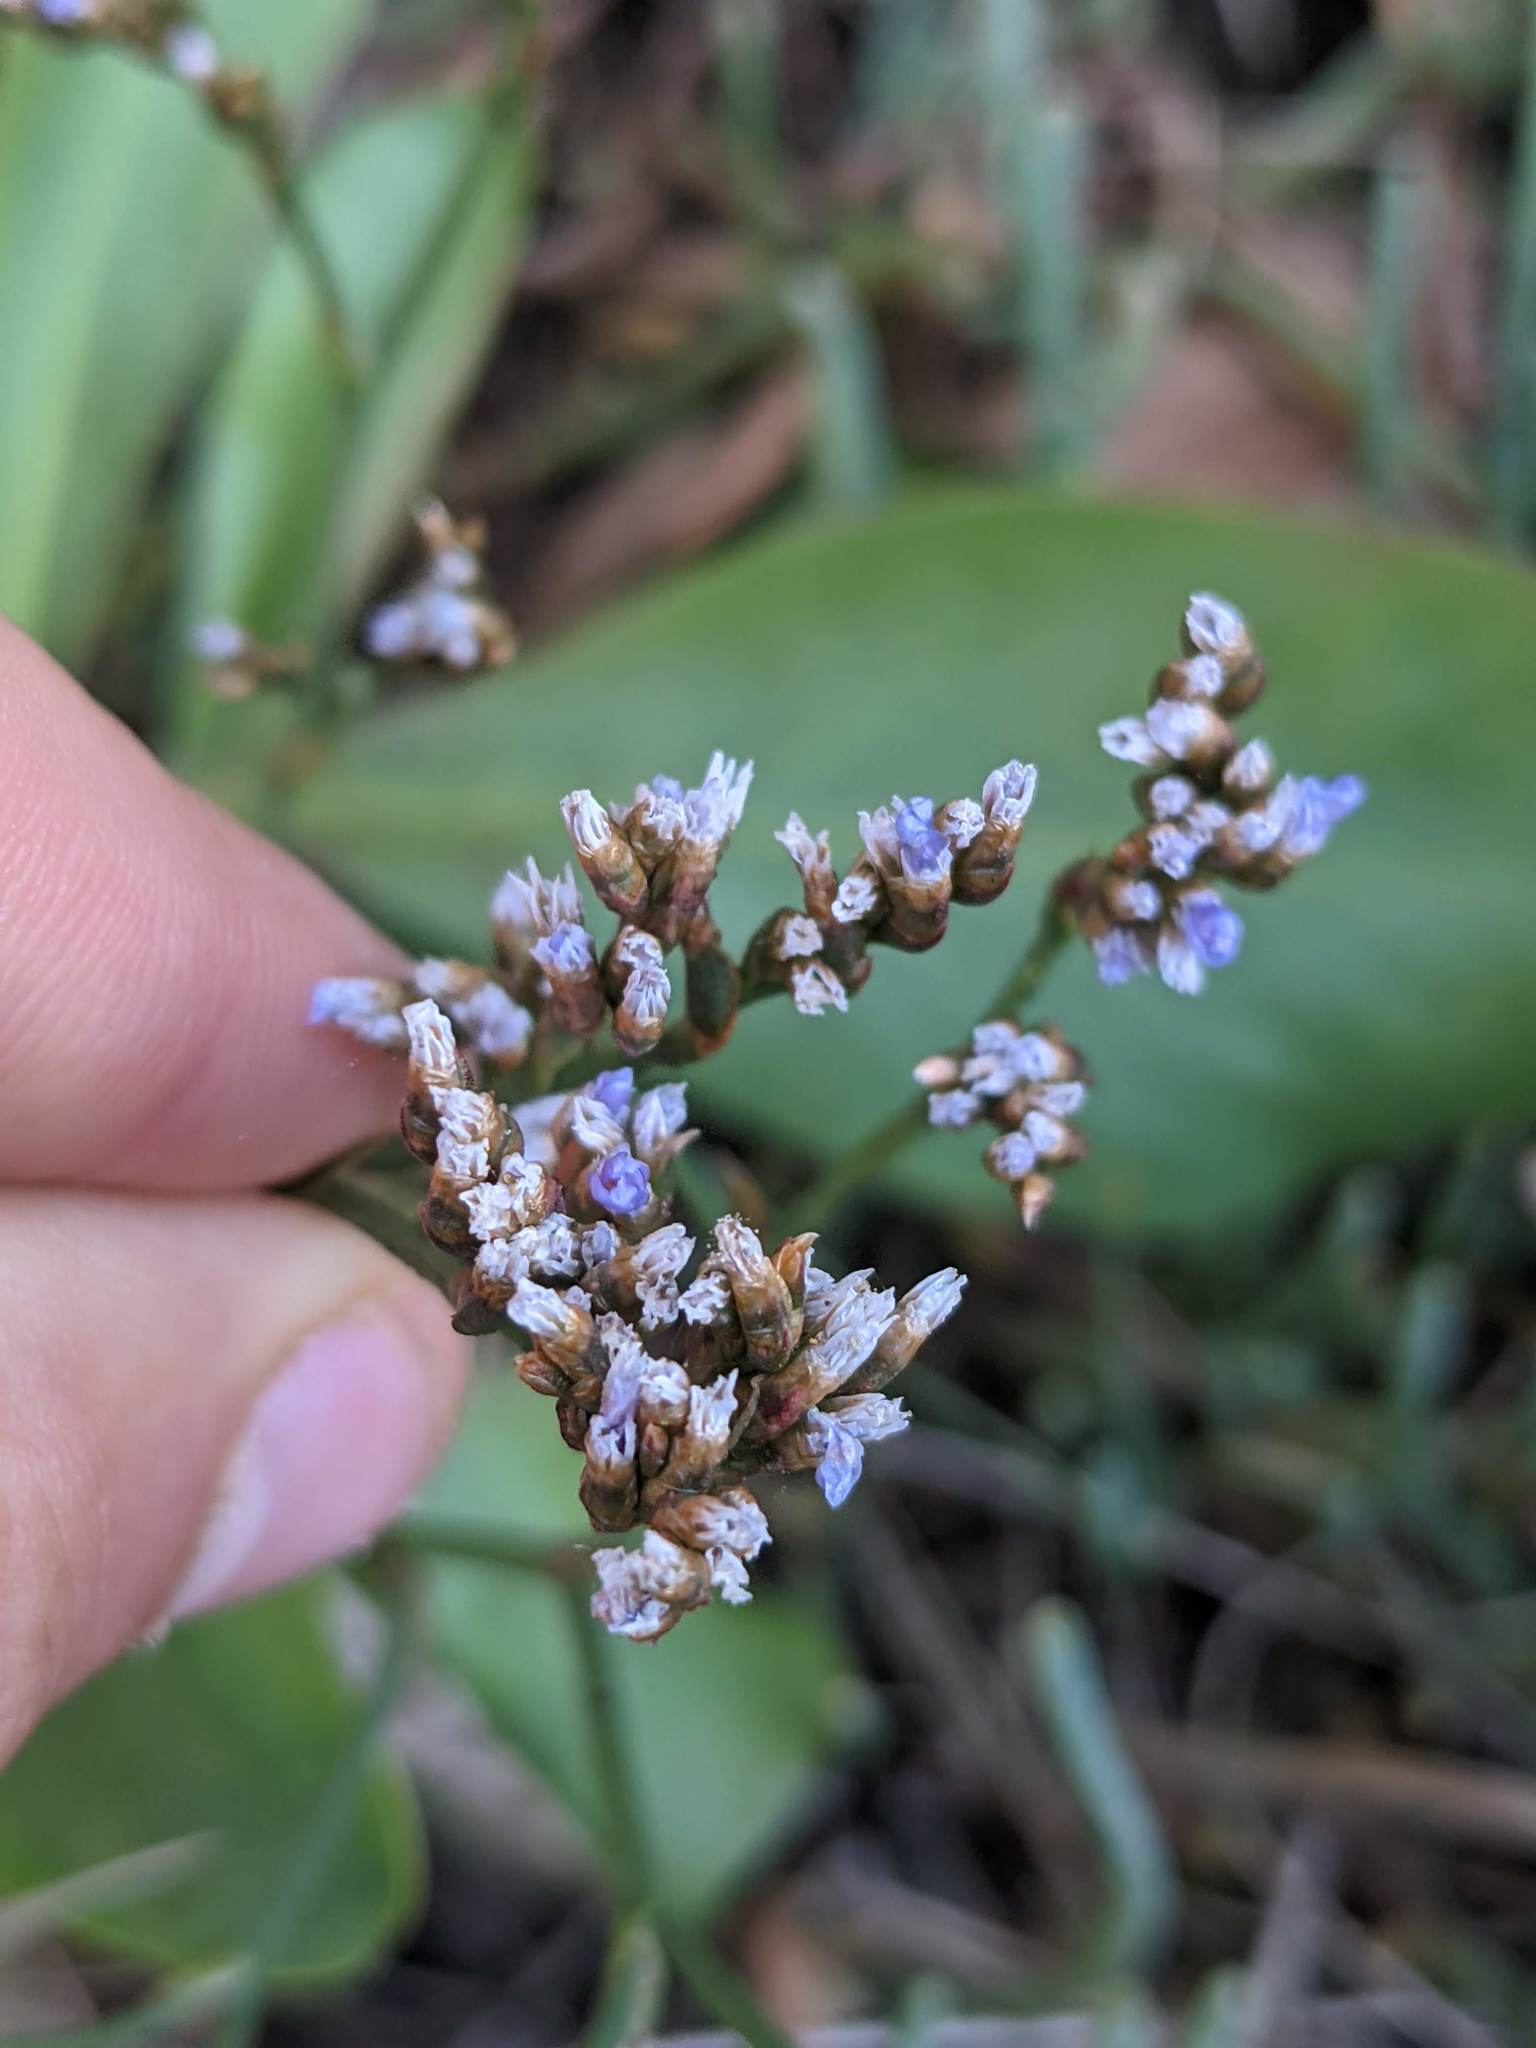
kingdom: Plantae
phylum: Tracheophyta
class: Magnoliopsida
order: Caryophyllales
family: Plumbaginaceae
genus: Limonium
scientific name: Limonium californicum
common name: Marsh-rosemary
